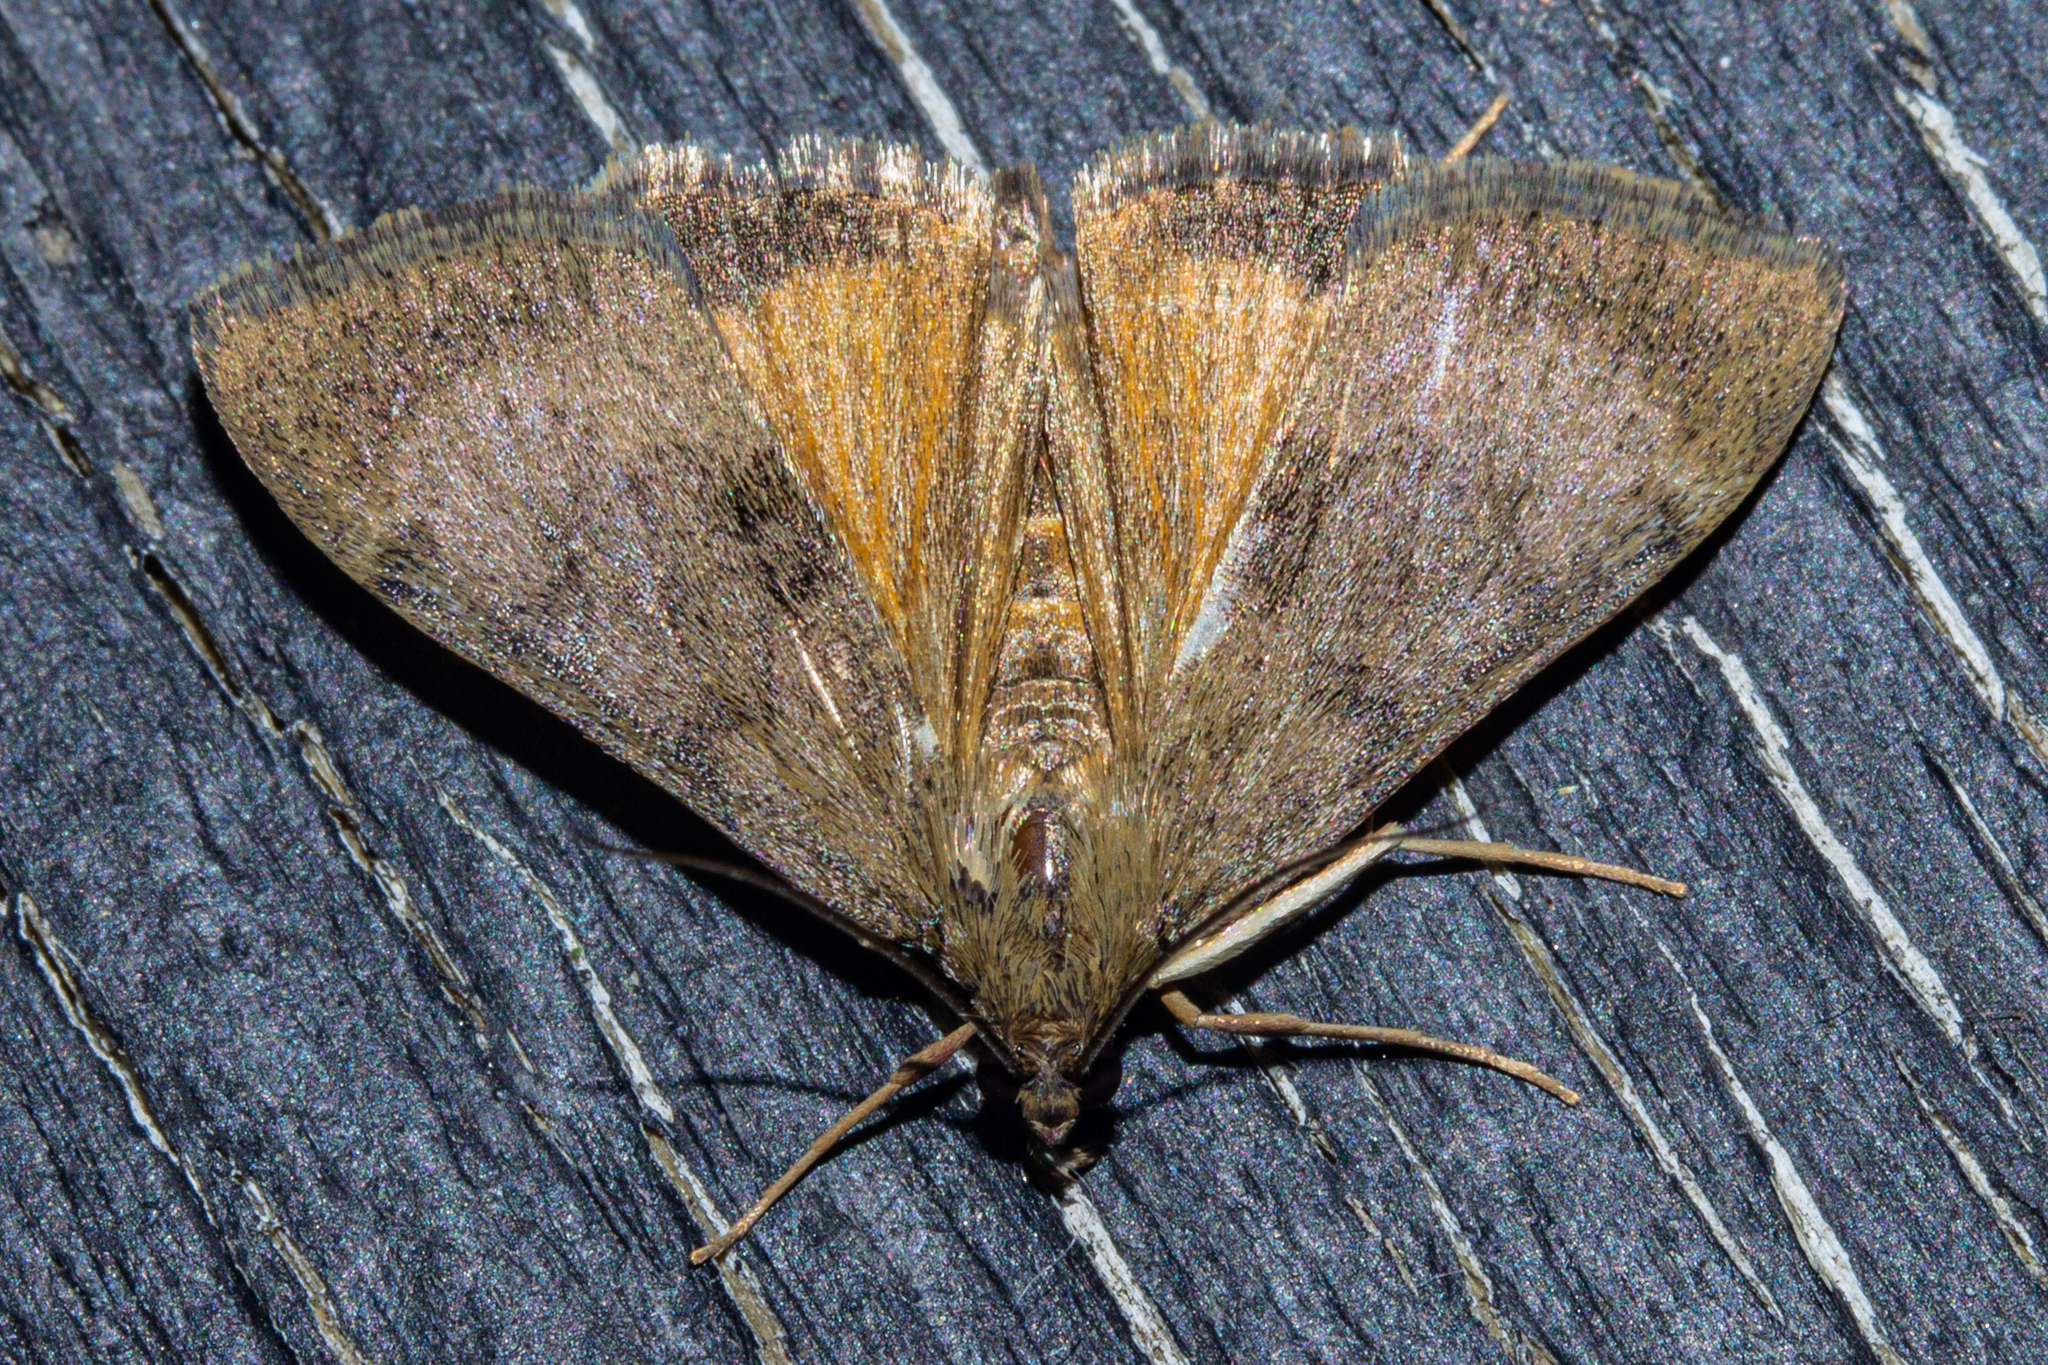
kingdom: Animalia
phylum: Arthropoda
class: Insecta
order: Lepidoptera
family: Crambidae
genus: Uresiphita
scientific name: Uresiphita
